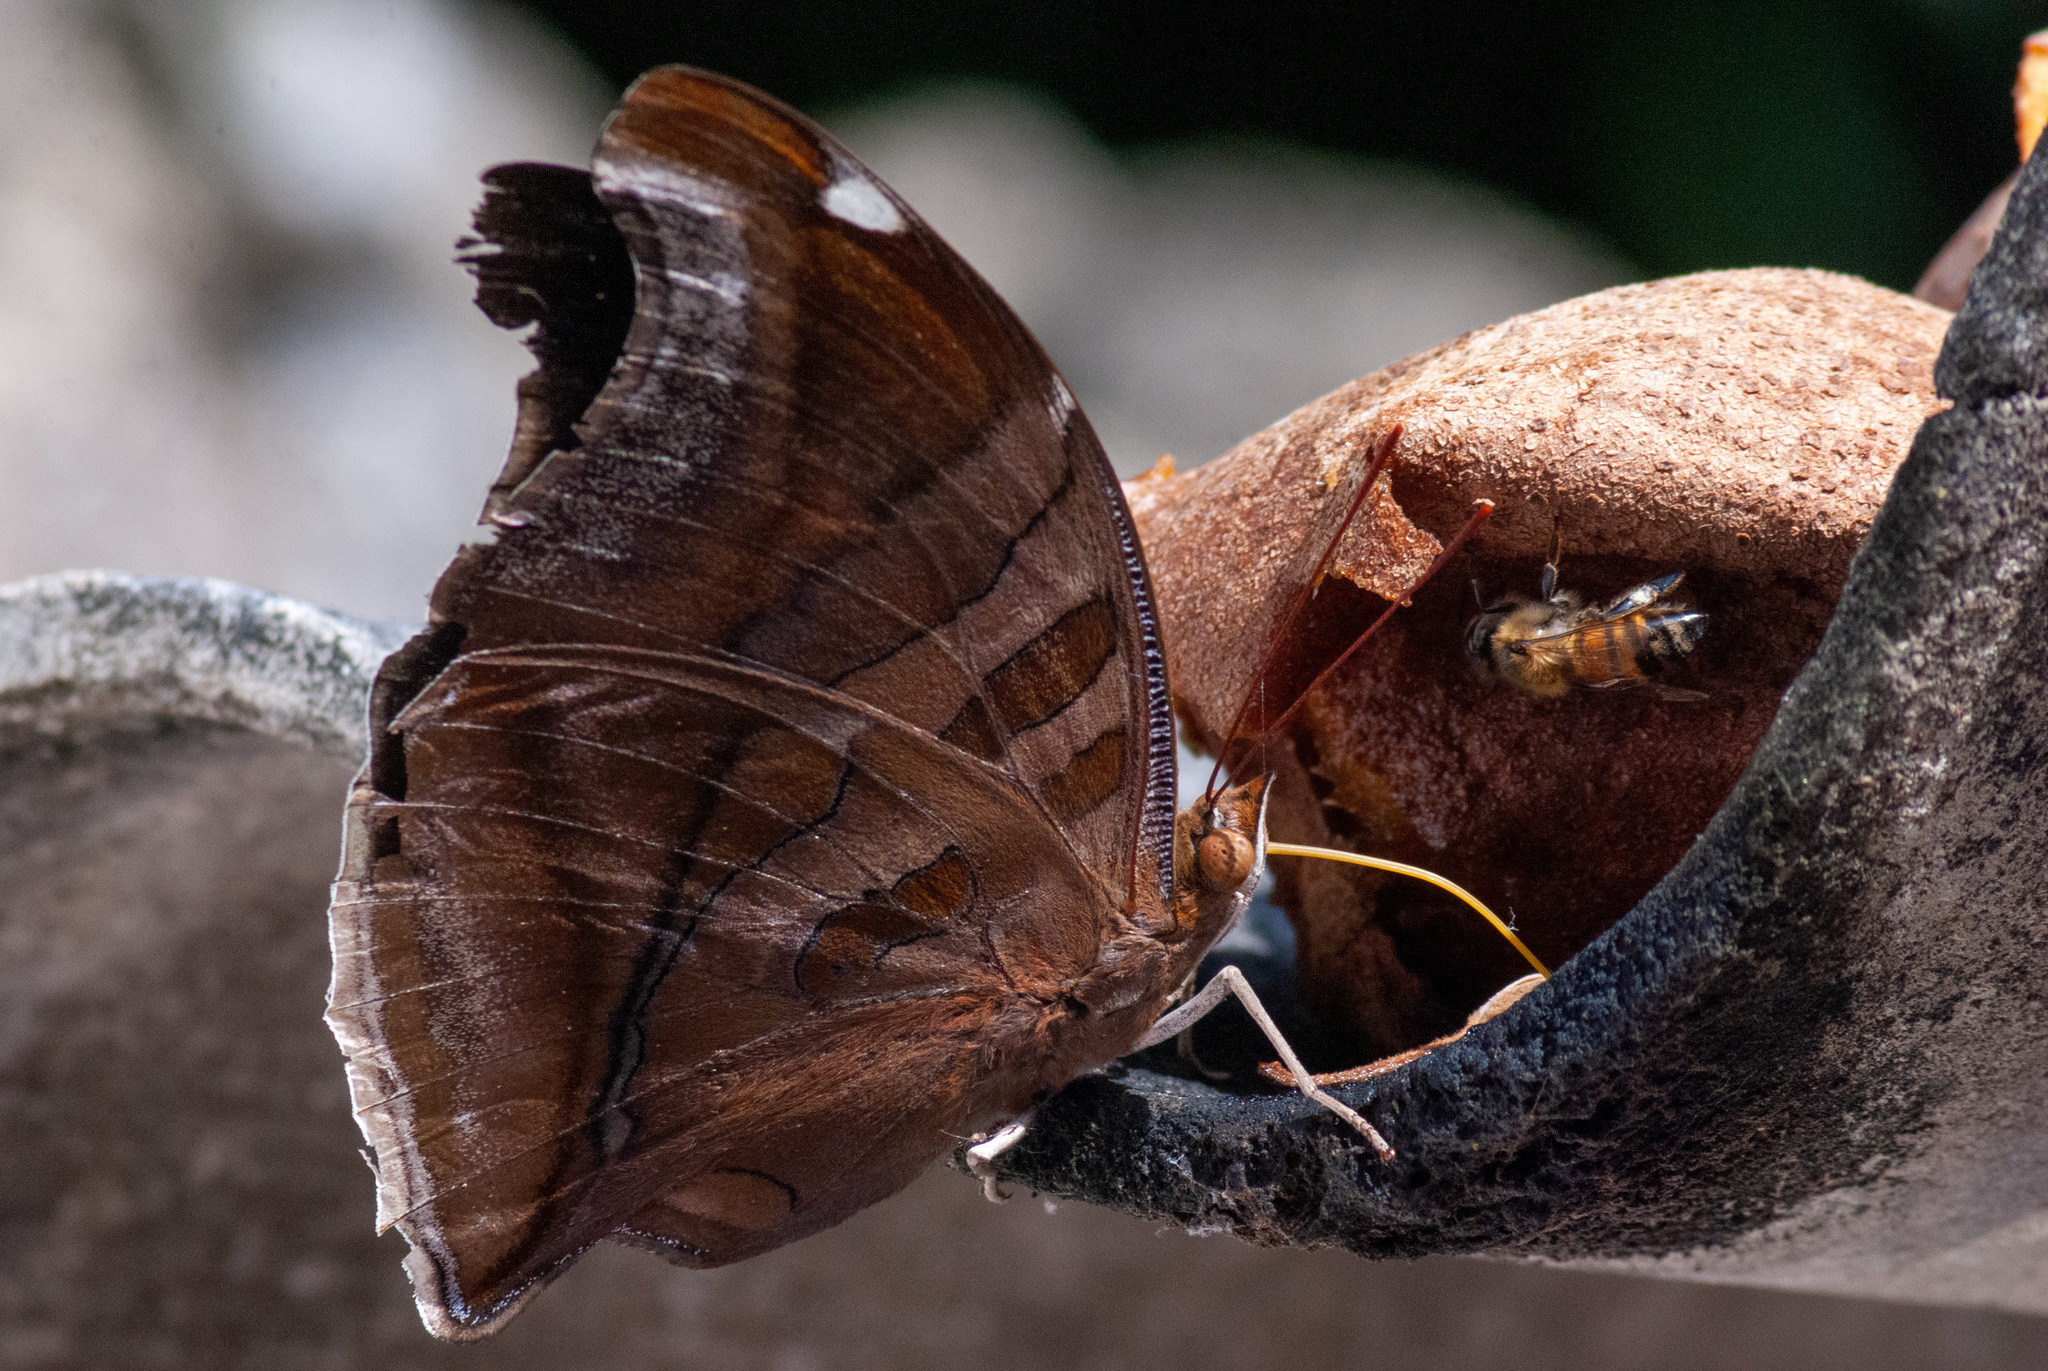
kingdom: Animalia
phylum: Arthropoda
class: Insecta
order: Lepidoptera
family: Nymphalidae
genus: Historis
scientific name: Historis odius
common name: Orion cecropian
